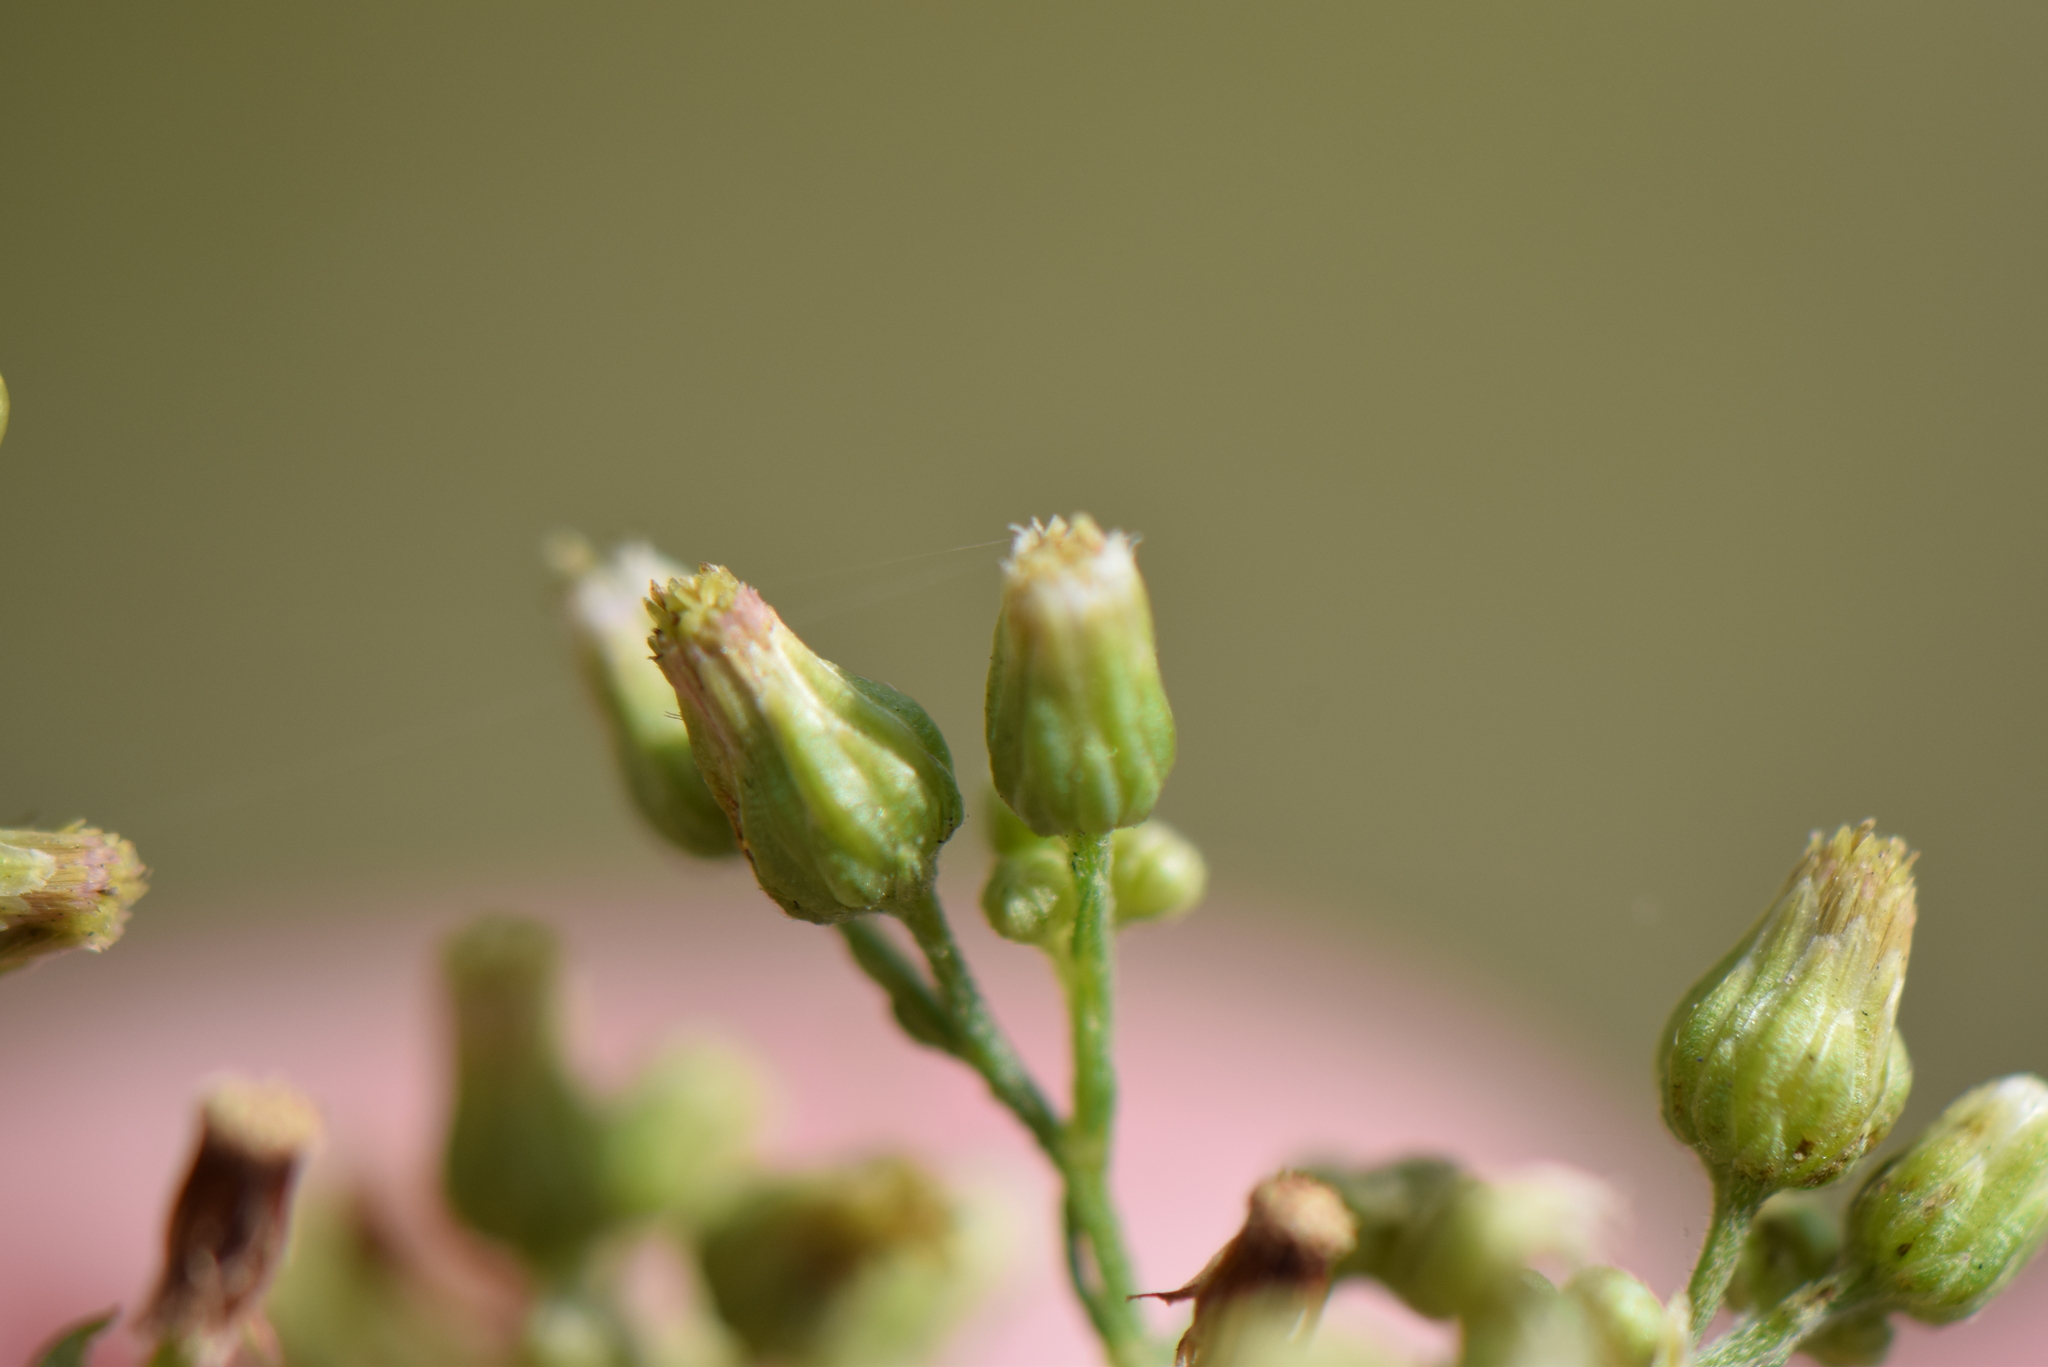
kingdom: Plantae
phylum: Tracheophyta
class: Magnoliopsida
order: Asterales
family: Asteraceae
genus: Erigeron
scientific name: Erigeron floribundus
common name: Bilbao fleabane
